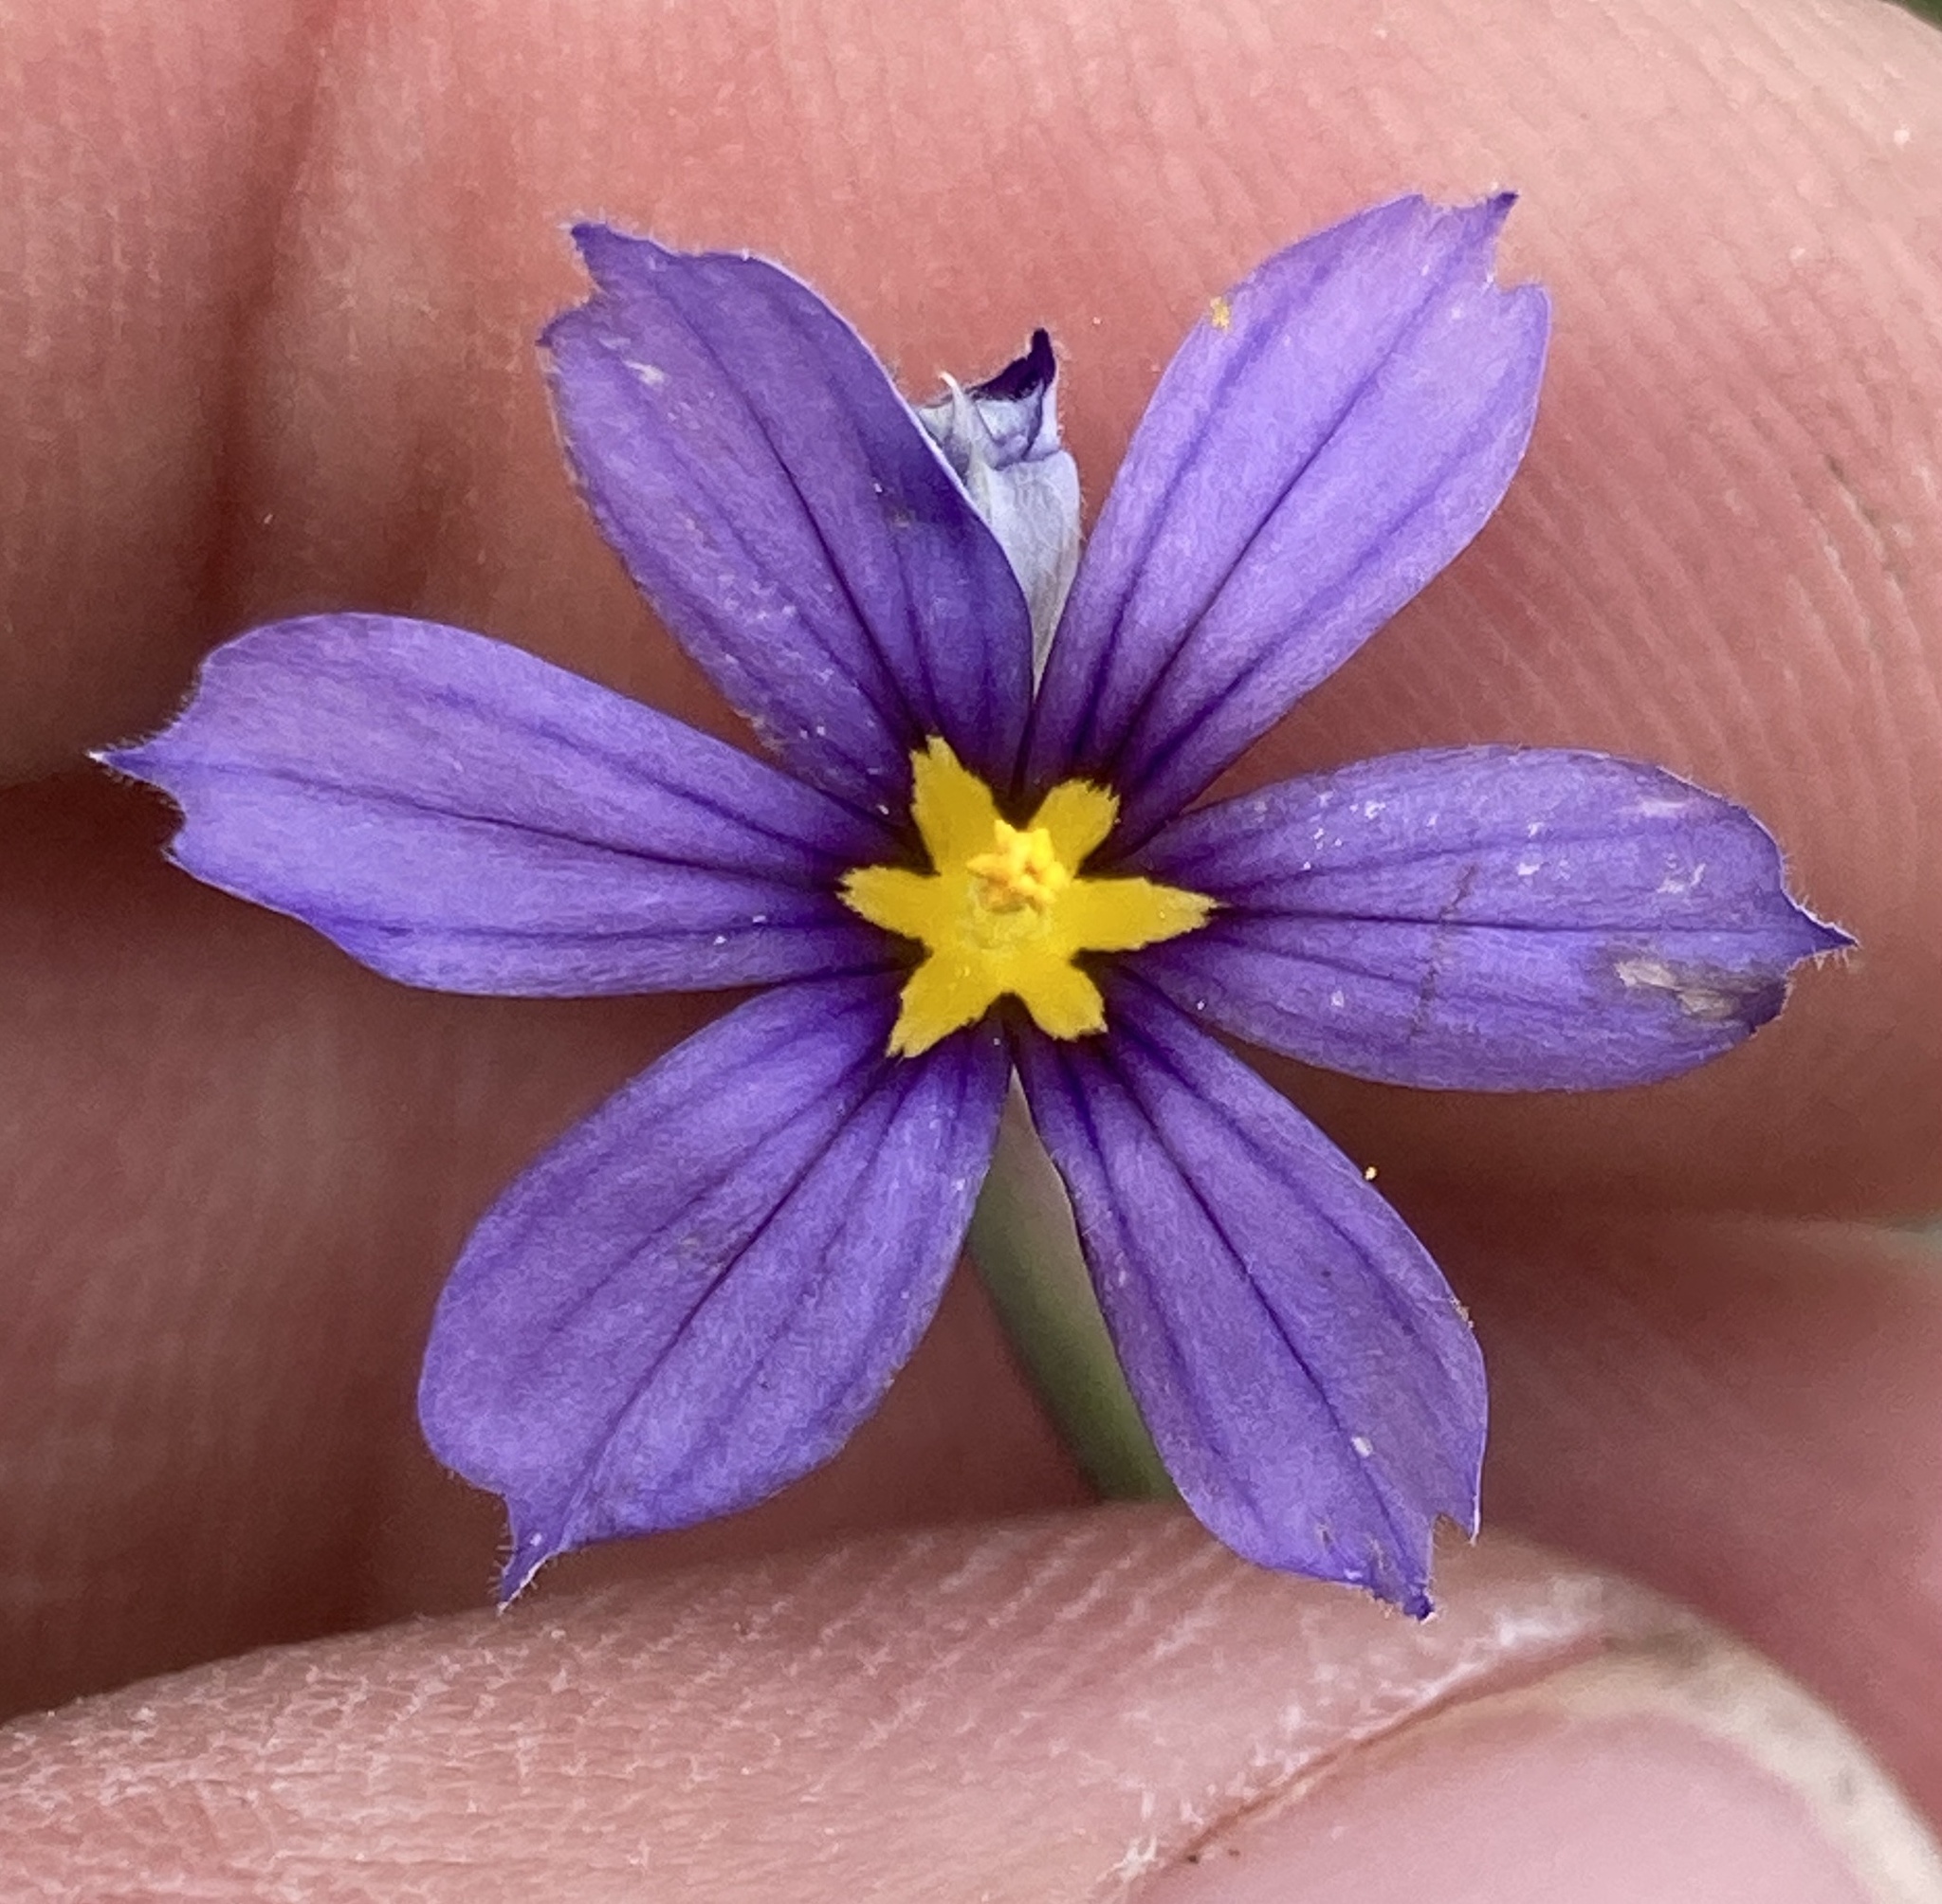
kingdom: Plantae
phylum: Tracheophyta
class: Liliopsida
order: Asparagales
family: Iridaceae
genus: Sisyrinchium
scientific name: Sisyrinchium halophilum
